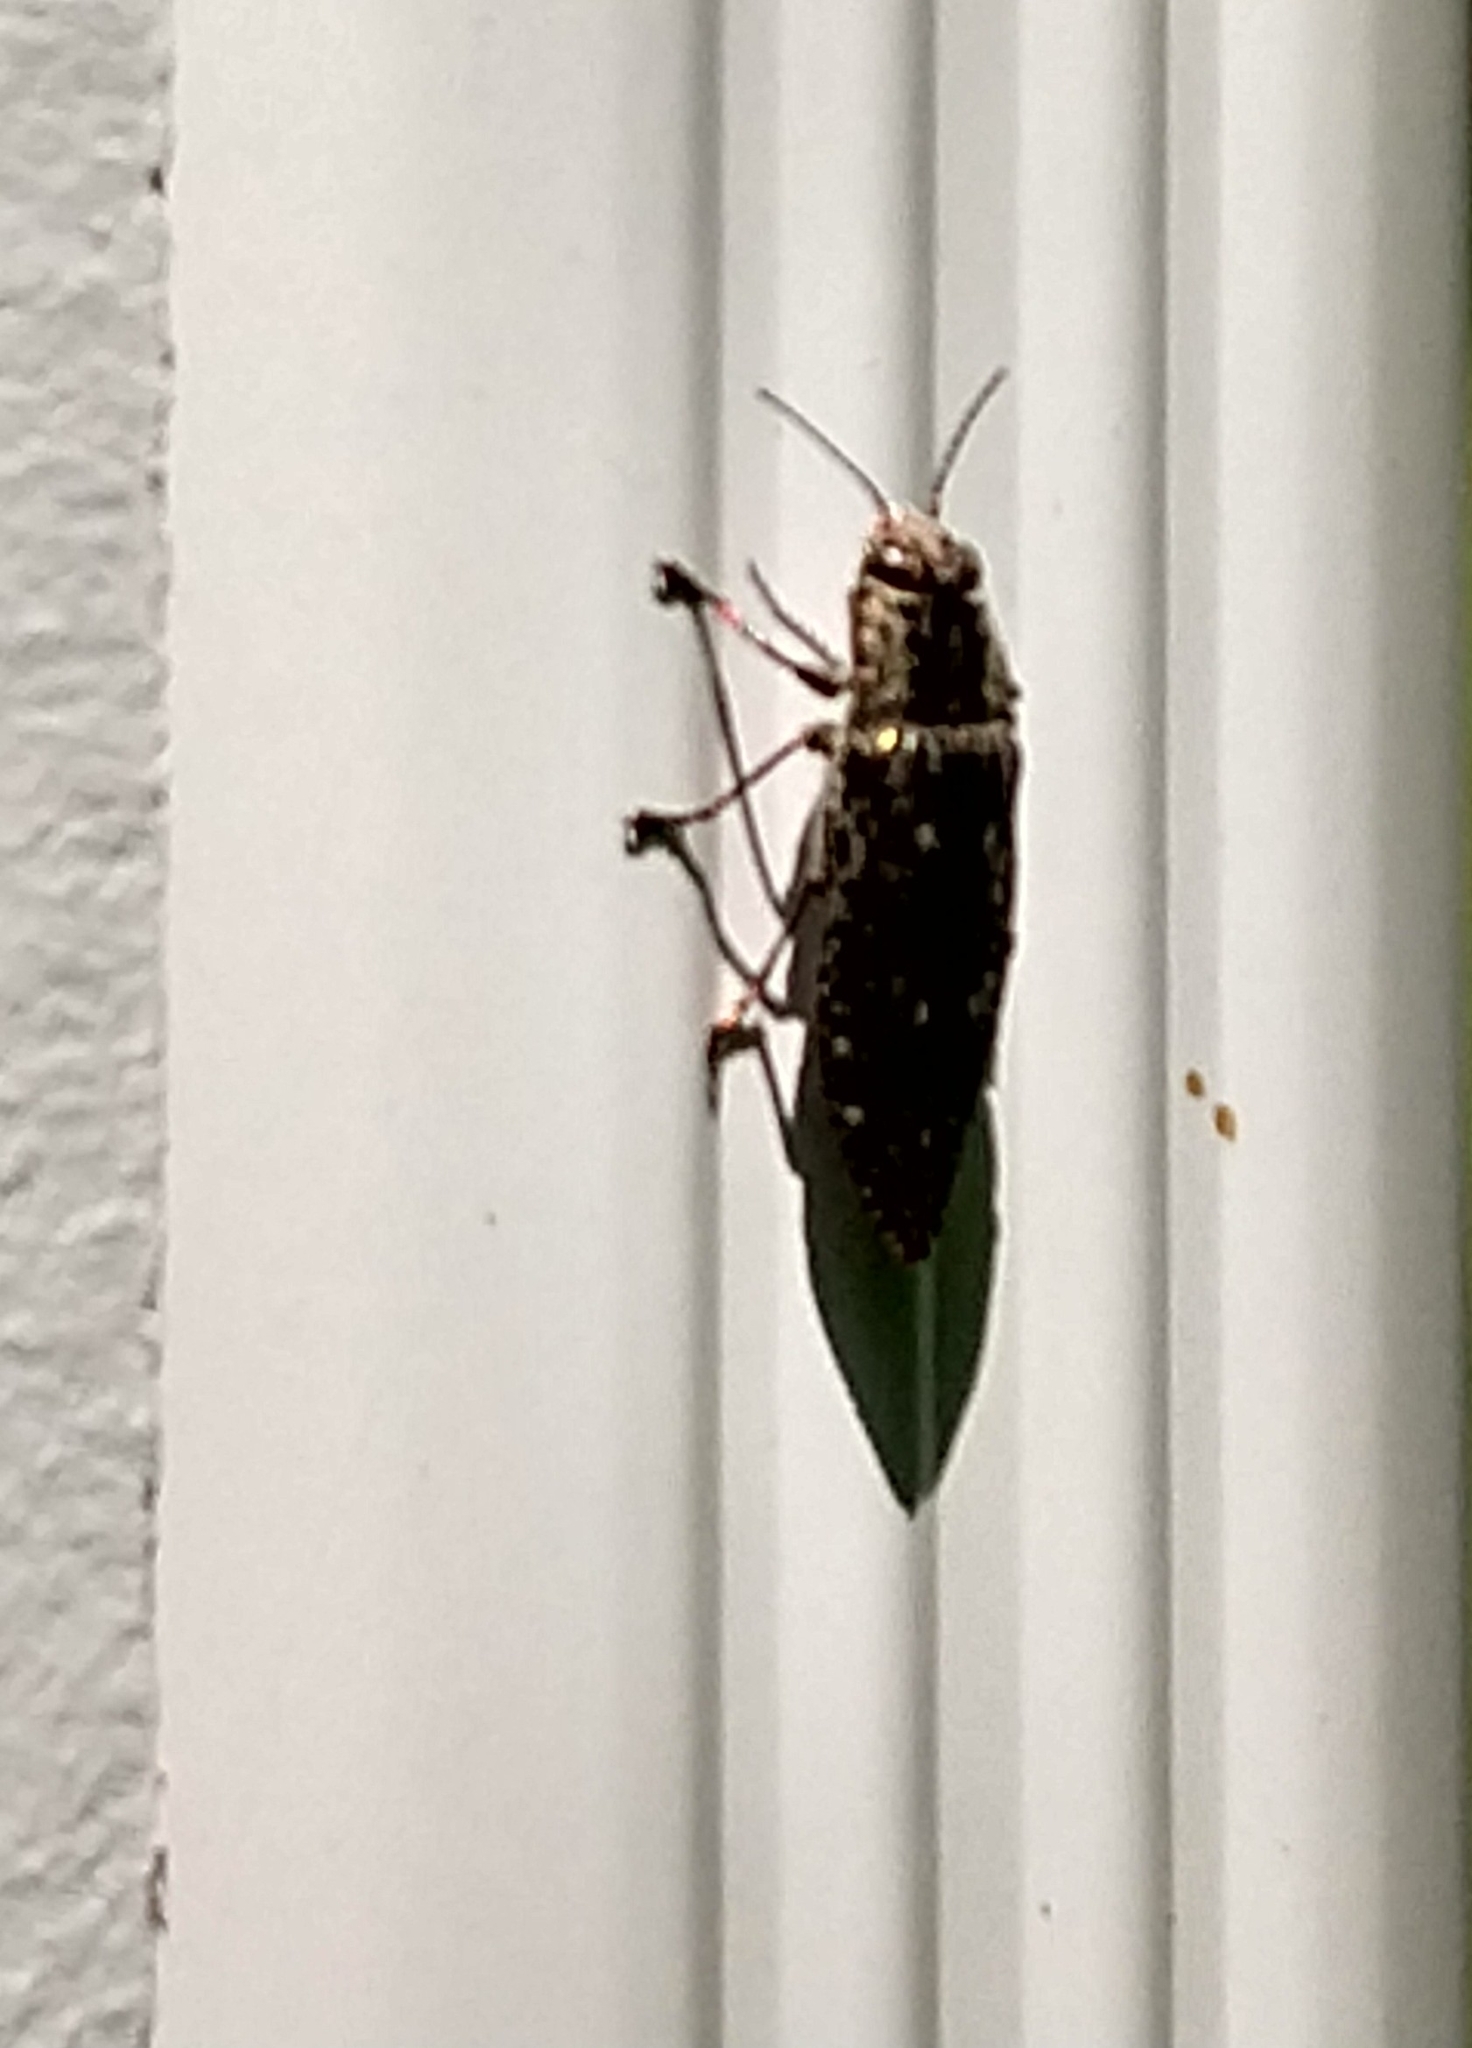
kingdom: Animalia
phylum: Arthropoda
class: Insecta
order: Coleoptera
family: Buprestidae
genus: Texania
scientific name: Texania campestris
